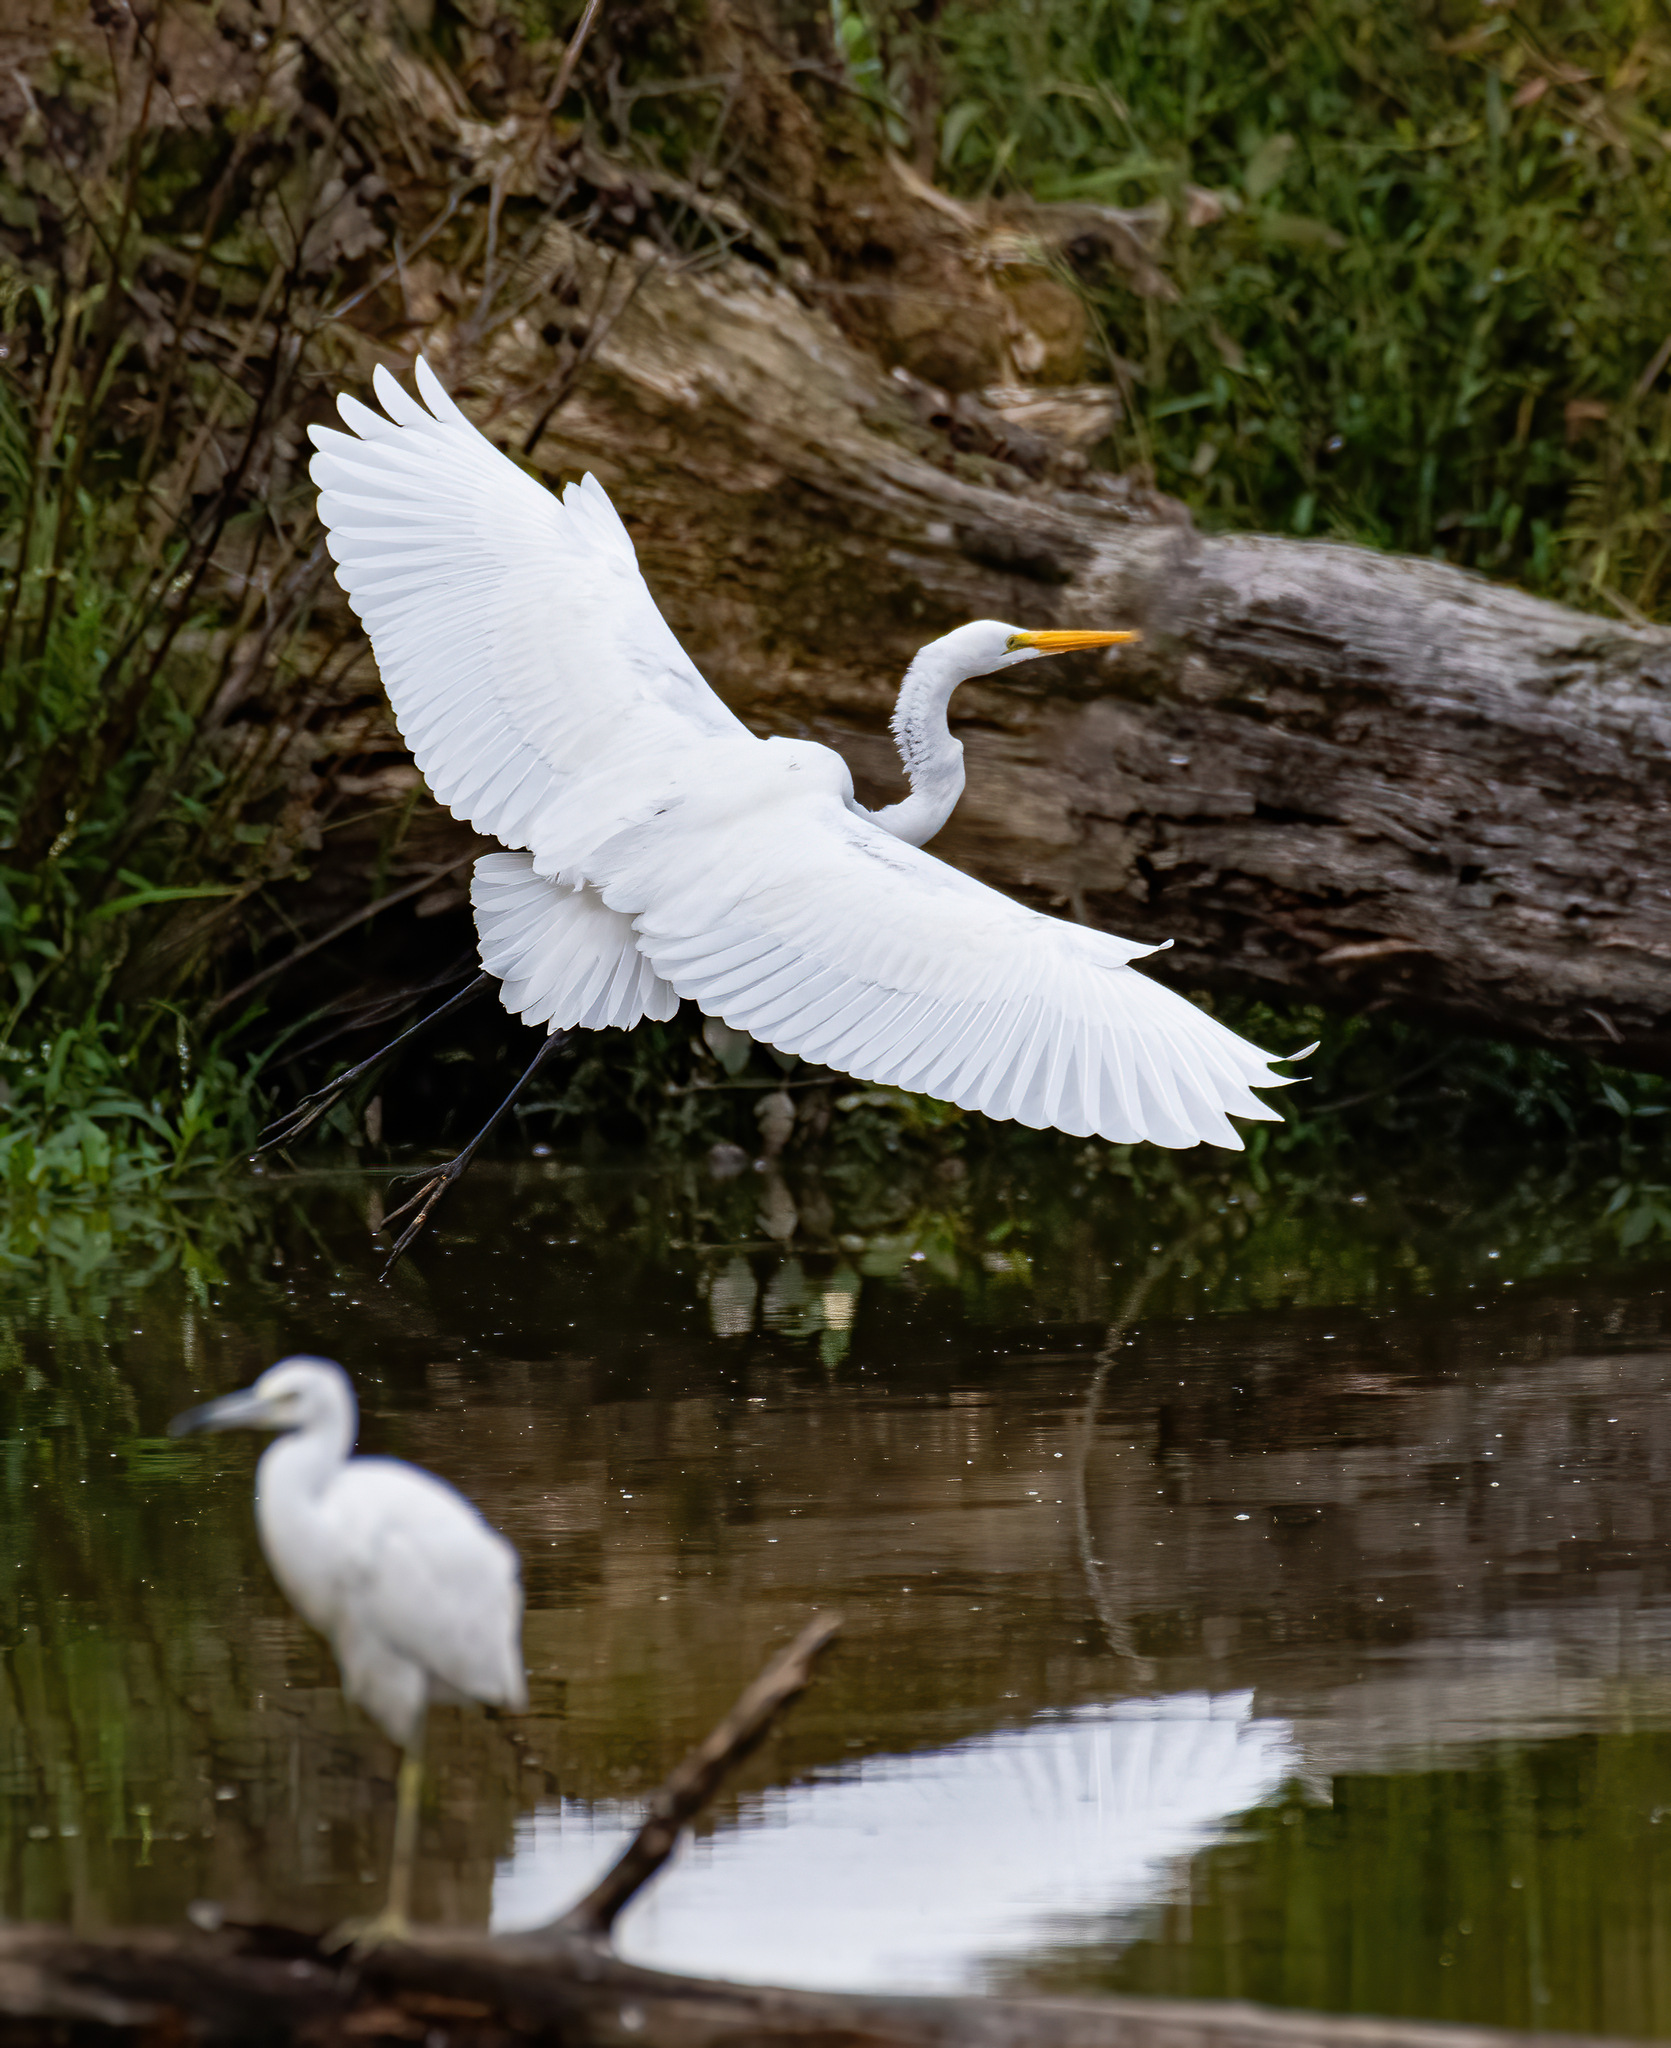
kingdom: Animalia
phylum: Chordata
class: Aves
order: Pelecaniformes
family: Ardeidae
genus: Ardea
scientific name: Ardea alba
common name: Great egret
